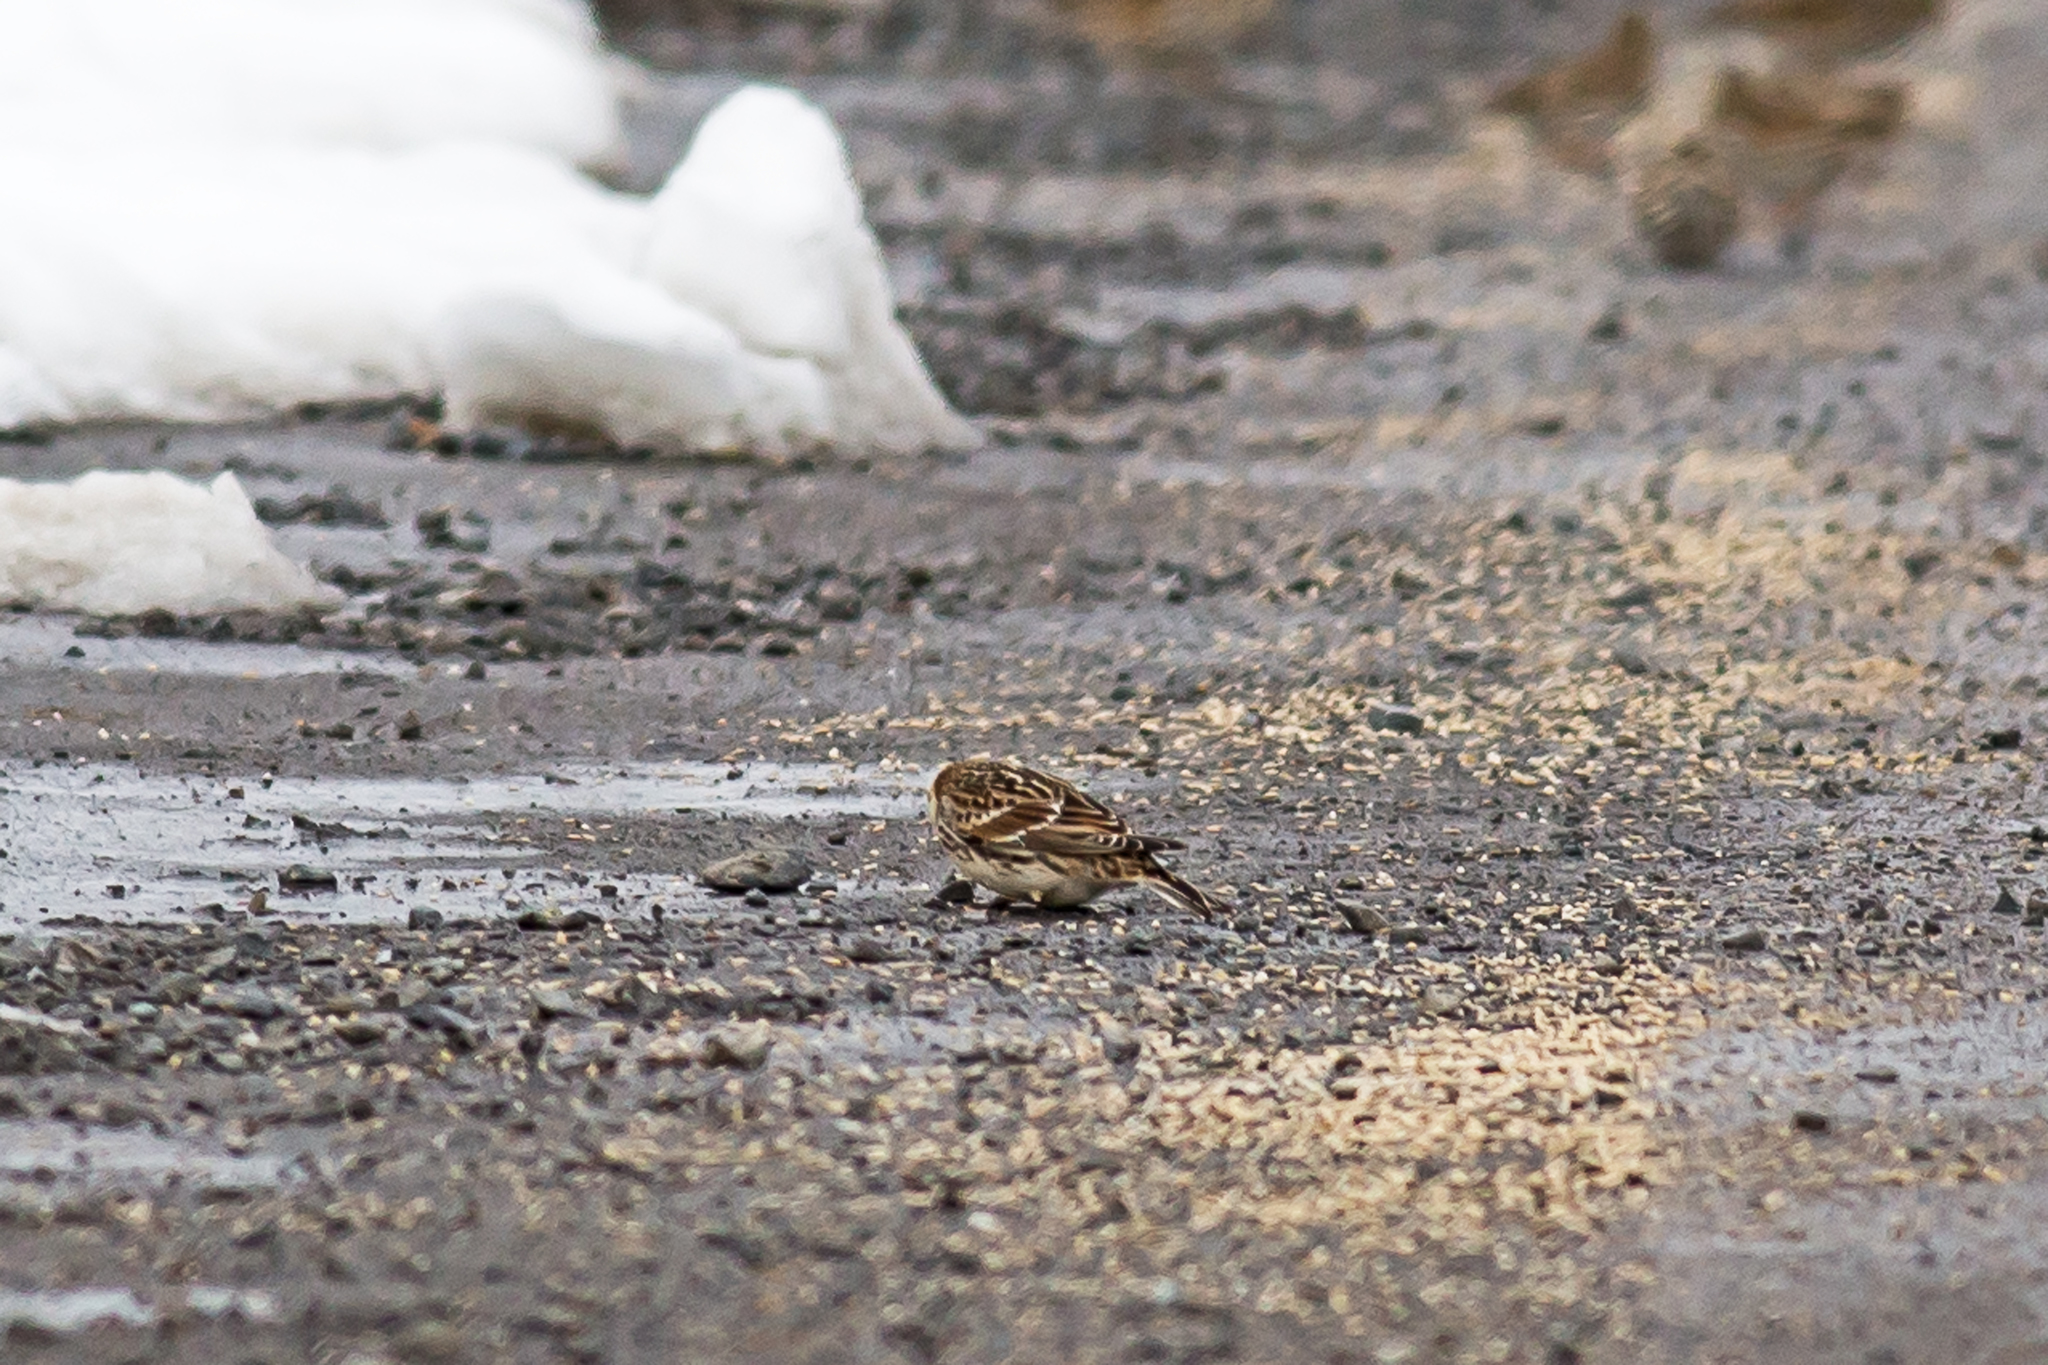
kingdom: Animalia
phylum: Chordata
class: Aves
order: Passeriformes
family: Calcariidae
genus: Calcarius
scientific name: Calcarius lapponicus
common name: Lapland longspur
